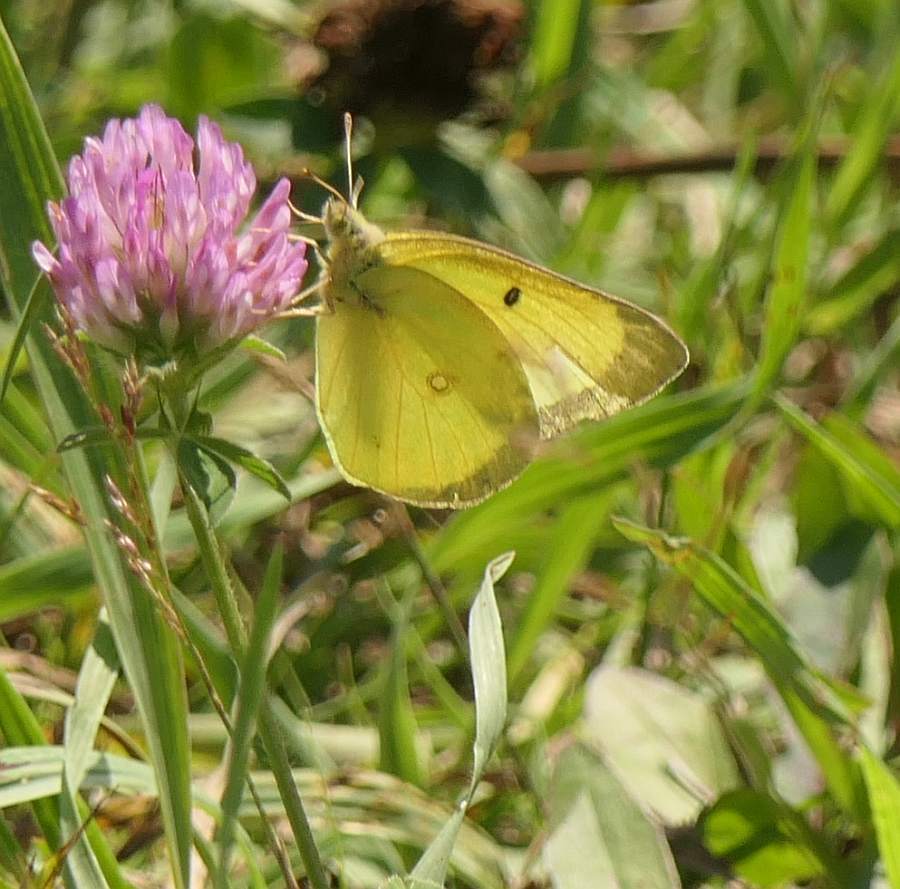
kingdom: Animalia
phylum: Arthropoda
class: Insecta
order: Lepidoptera
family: Pieridae
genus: Colias
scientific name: Colias philodice
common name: Clouded sulphur
